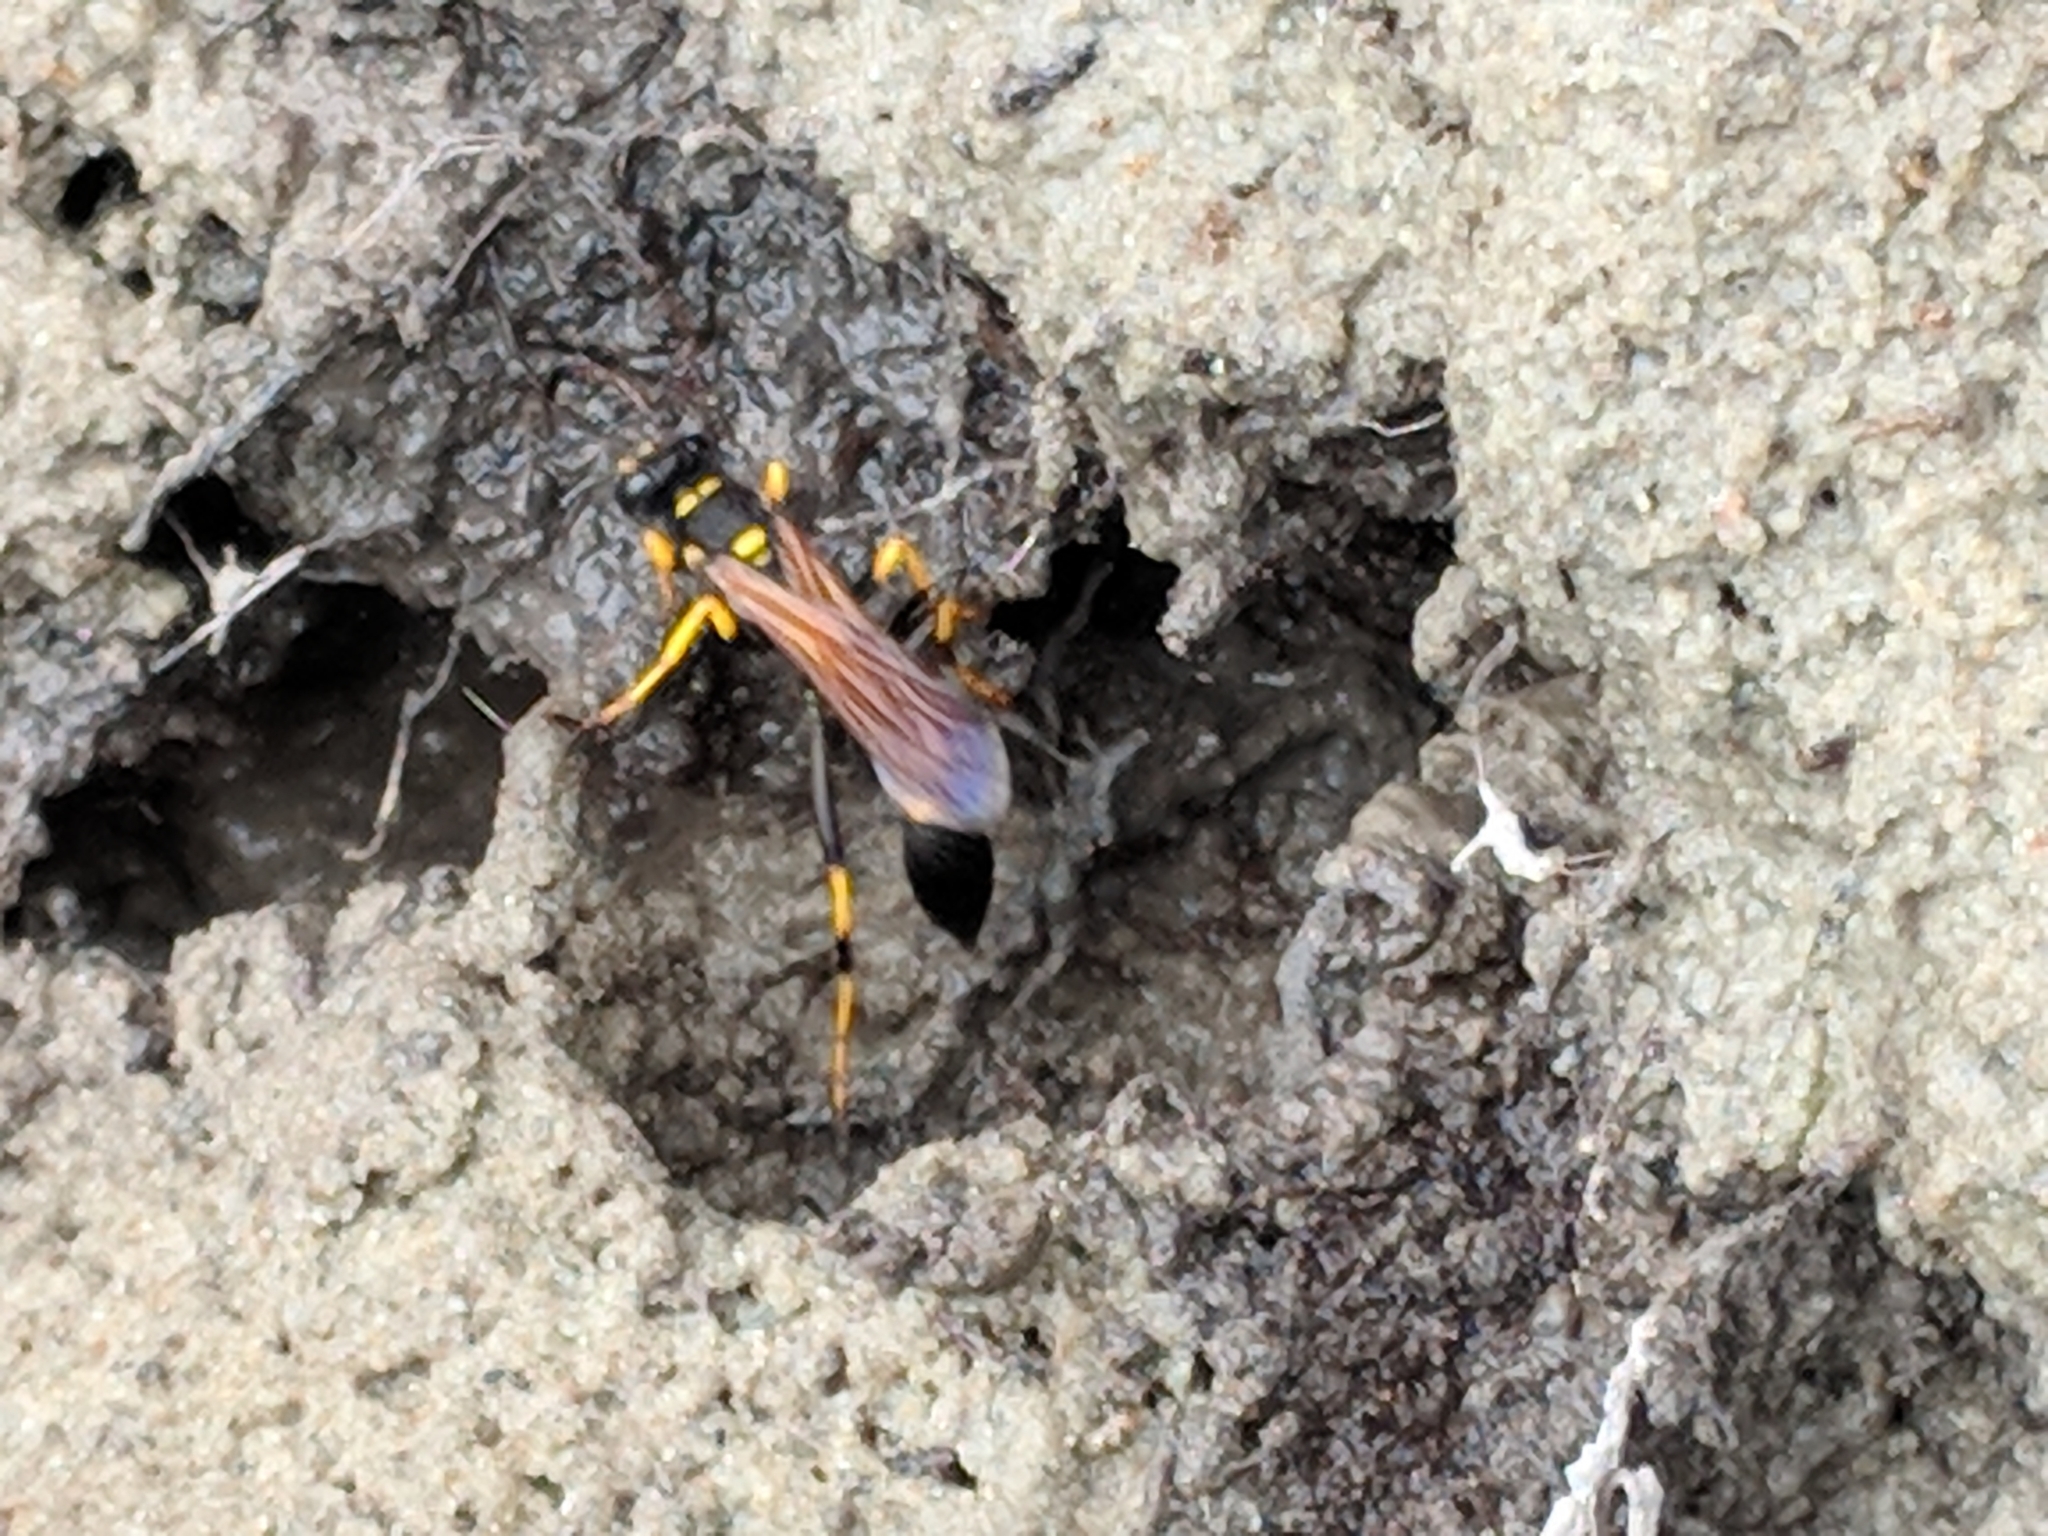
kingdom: Animalia
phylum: Arthropoda
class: Insecta
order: Hymenoptera
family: Sphecidae
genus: Sceliphron
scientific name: Sceliphron caementarium
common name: Mud dauber
